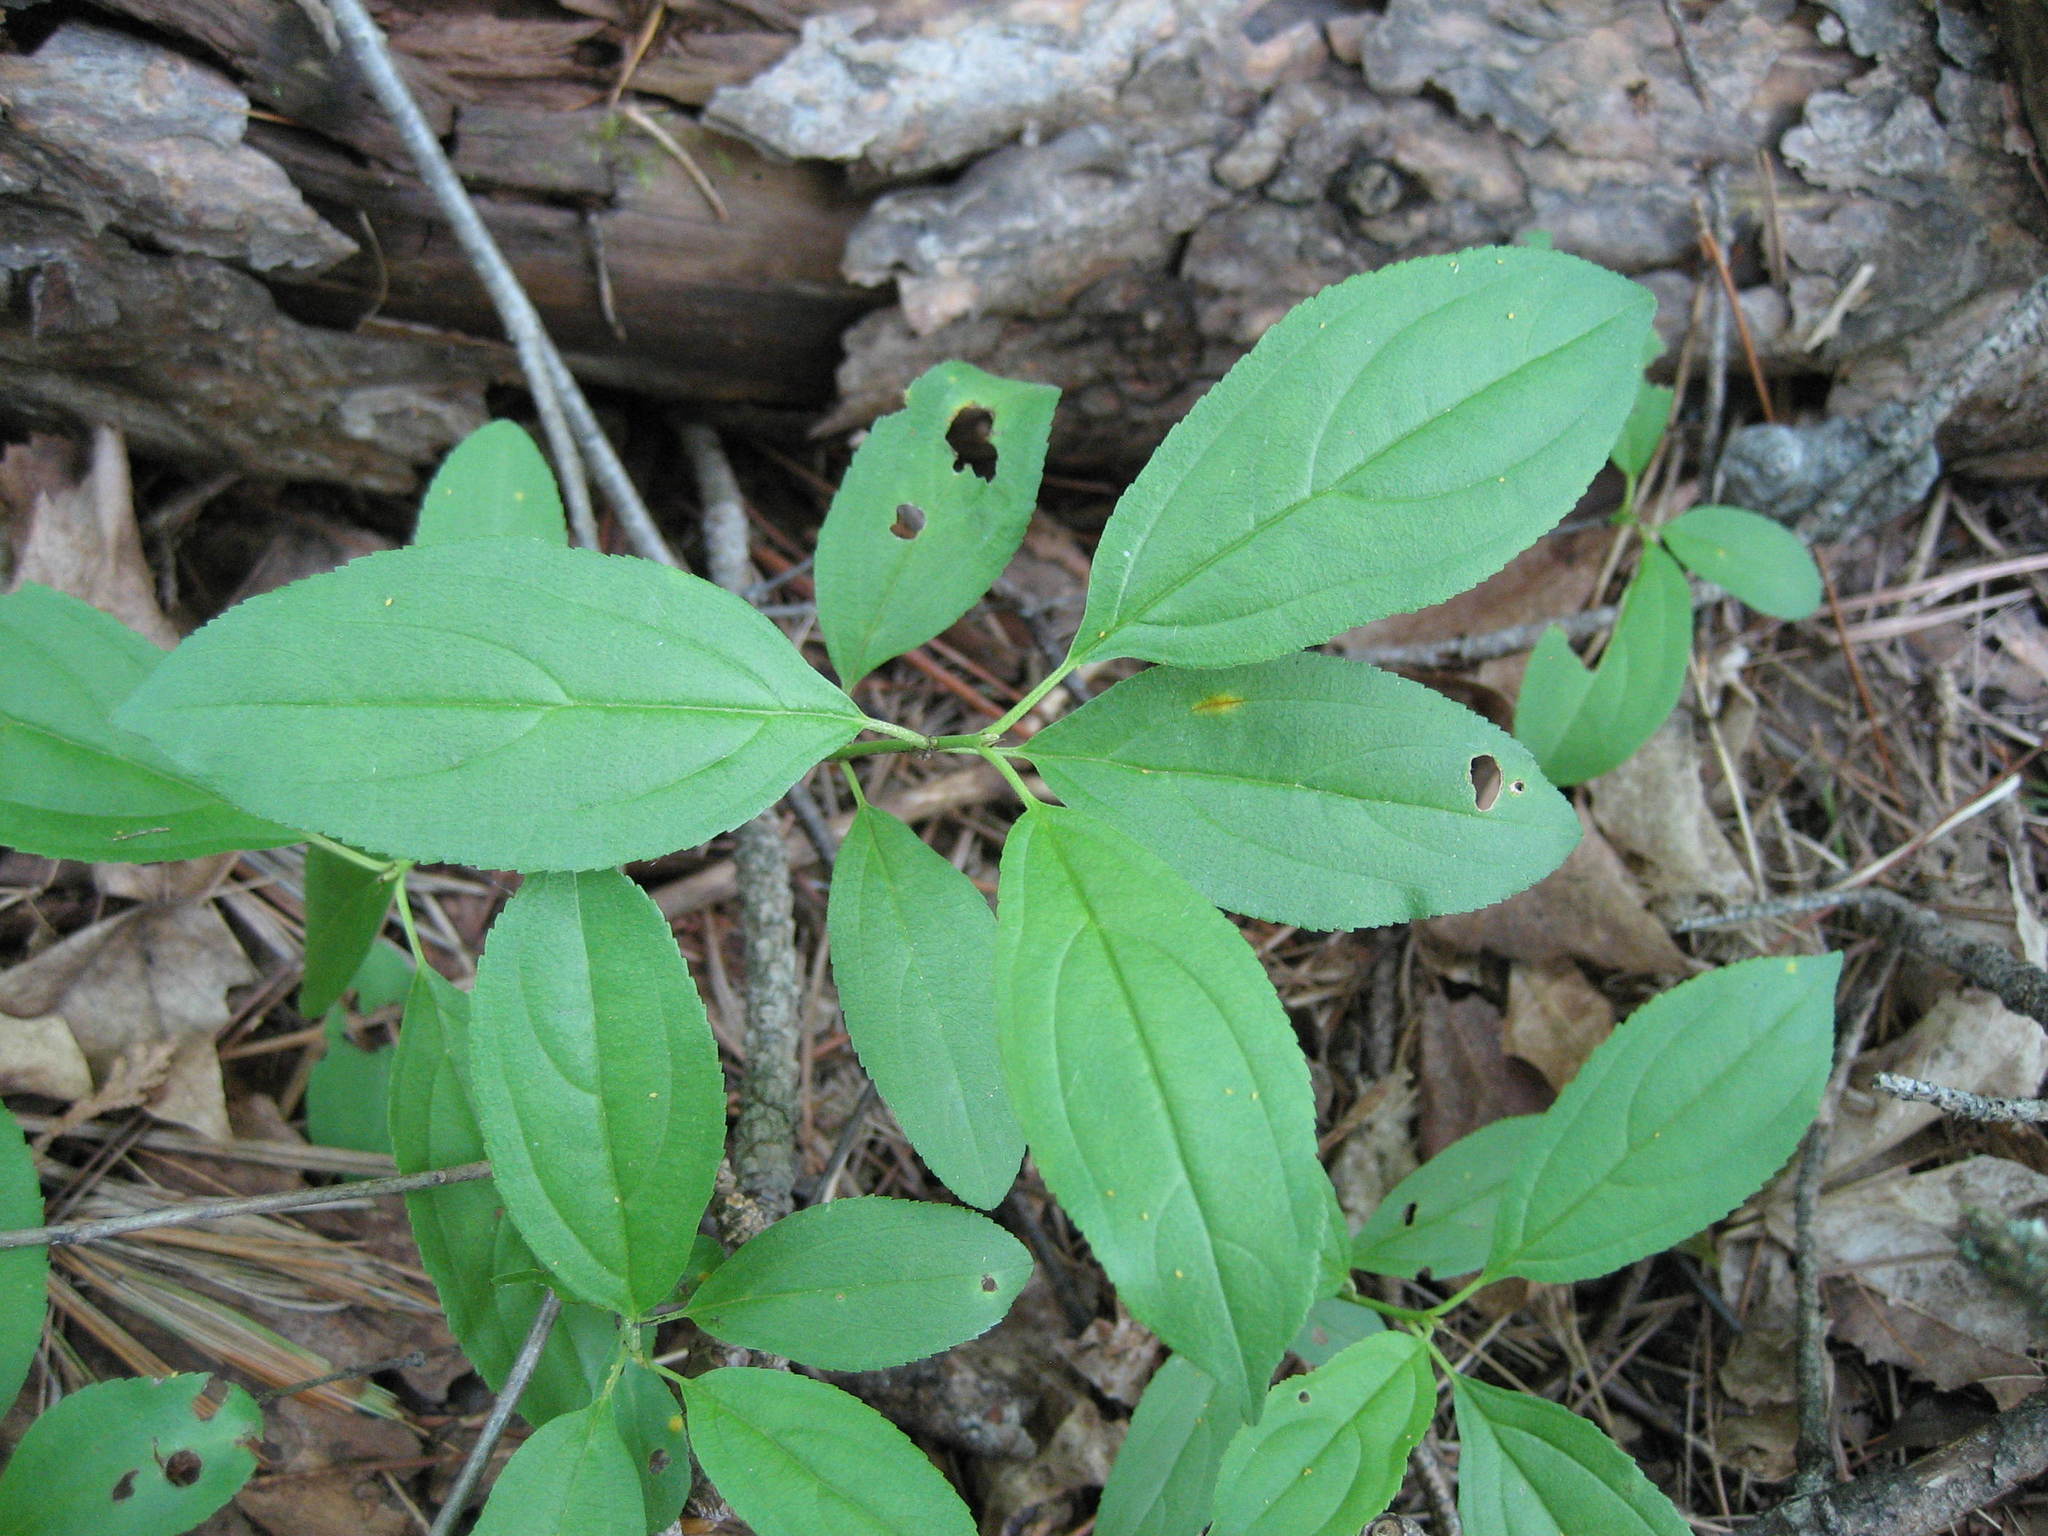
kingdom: Plantae
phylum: Tracheophyta
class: Magnoliopsida
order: Rosales
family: Rhamnaceae
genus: Rhamnus
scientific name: Rhamnus cathartica
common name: Common buckthorn
